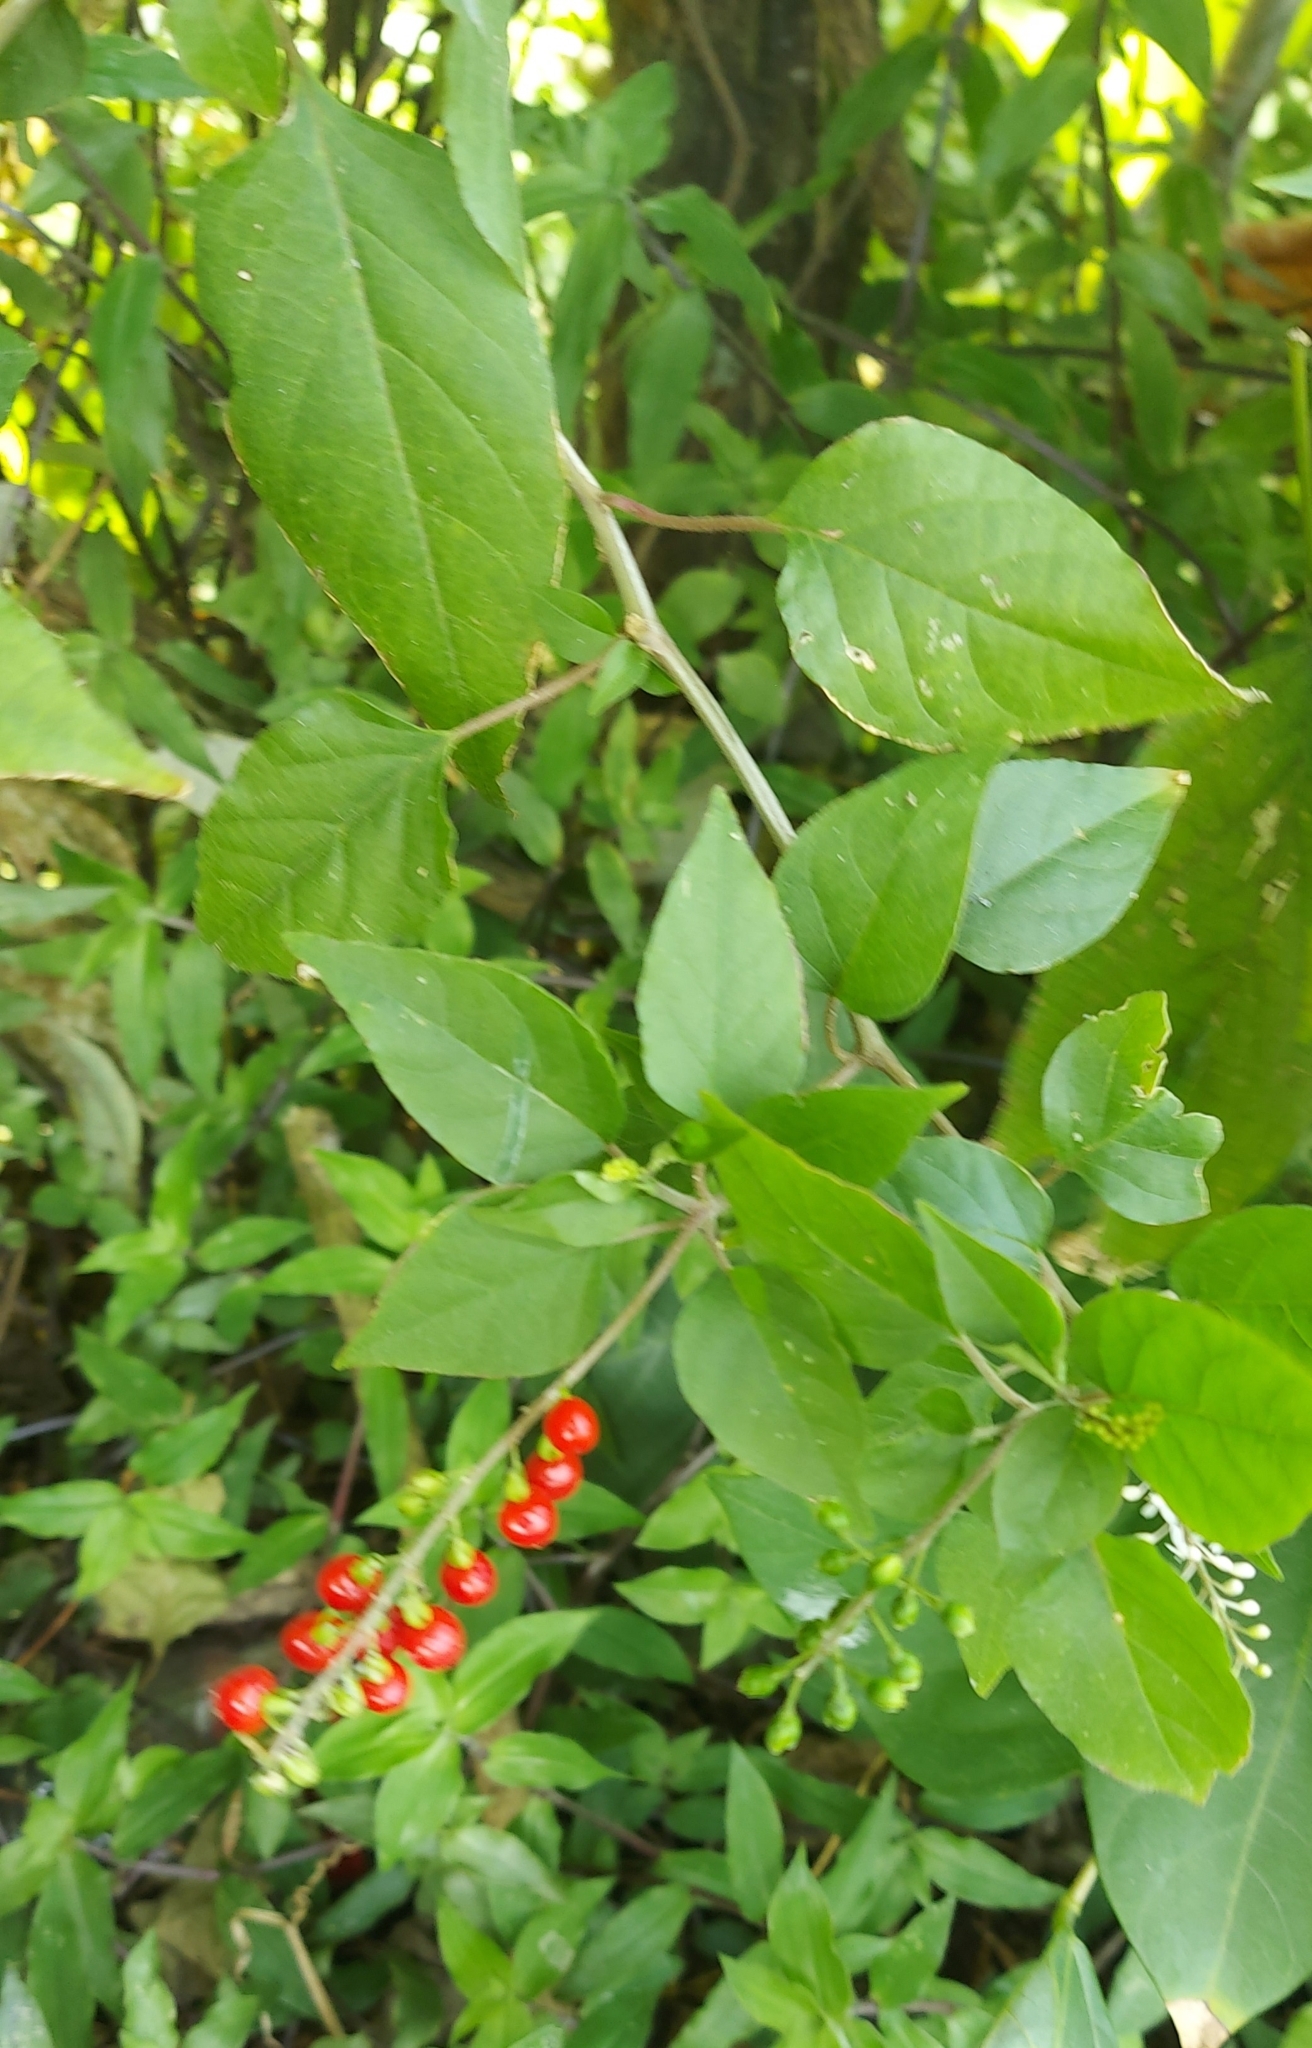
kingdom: Plantae
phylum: Tracheophyta
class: Magnoliopsida
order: Caryophyllales
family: Phytolaccaceae
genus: Rivina
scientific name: Rivina humilis
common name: Rougeplant
